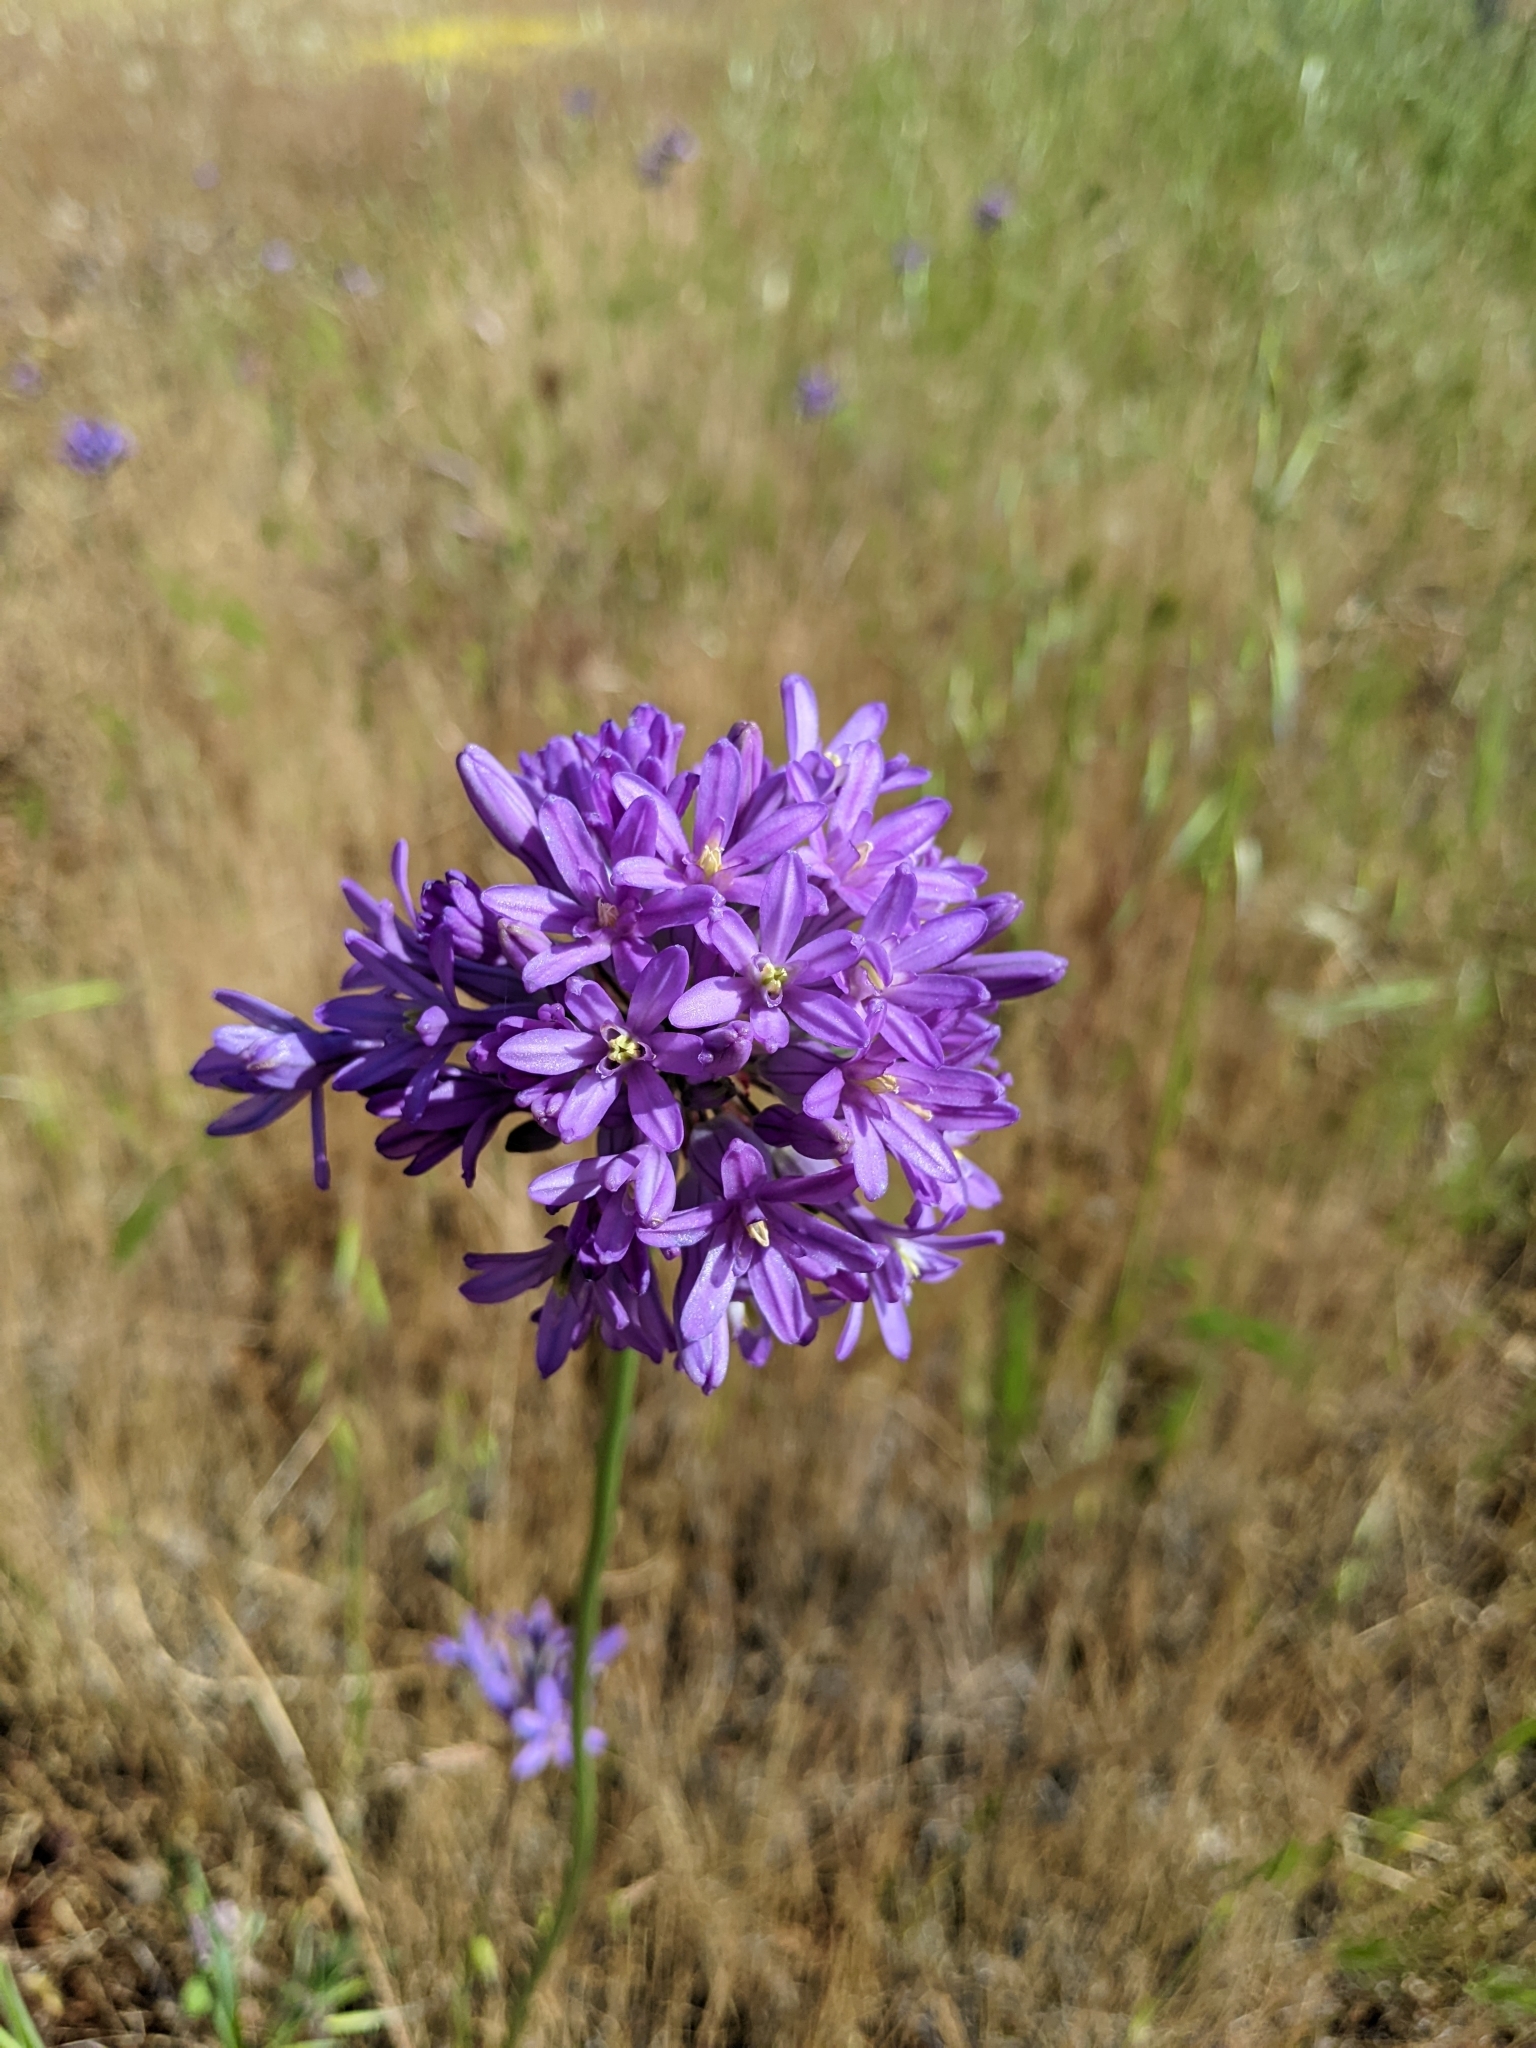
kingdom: Plantae
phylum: Tracheophyta
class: Liliopsida
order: Asparagales
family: Asparagaceae
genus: Dichelostemma
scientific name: Dichelostemma multiflorum
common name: Round-tooth ookow
